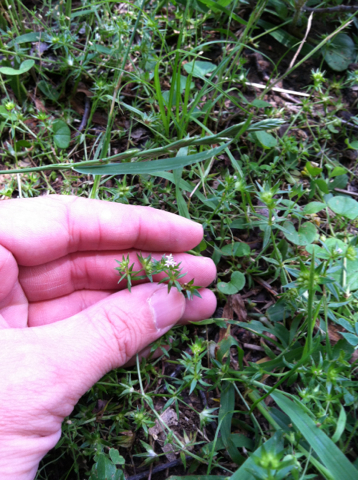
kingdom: Plantae
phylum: Tracheophyta
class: Magnoliopsida
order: Gentianales
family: Rubiaceae
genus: Sherardia
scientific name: Sherardia arvensis
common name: Field madder
